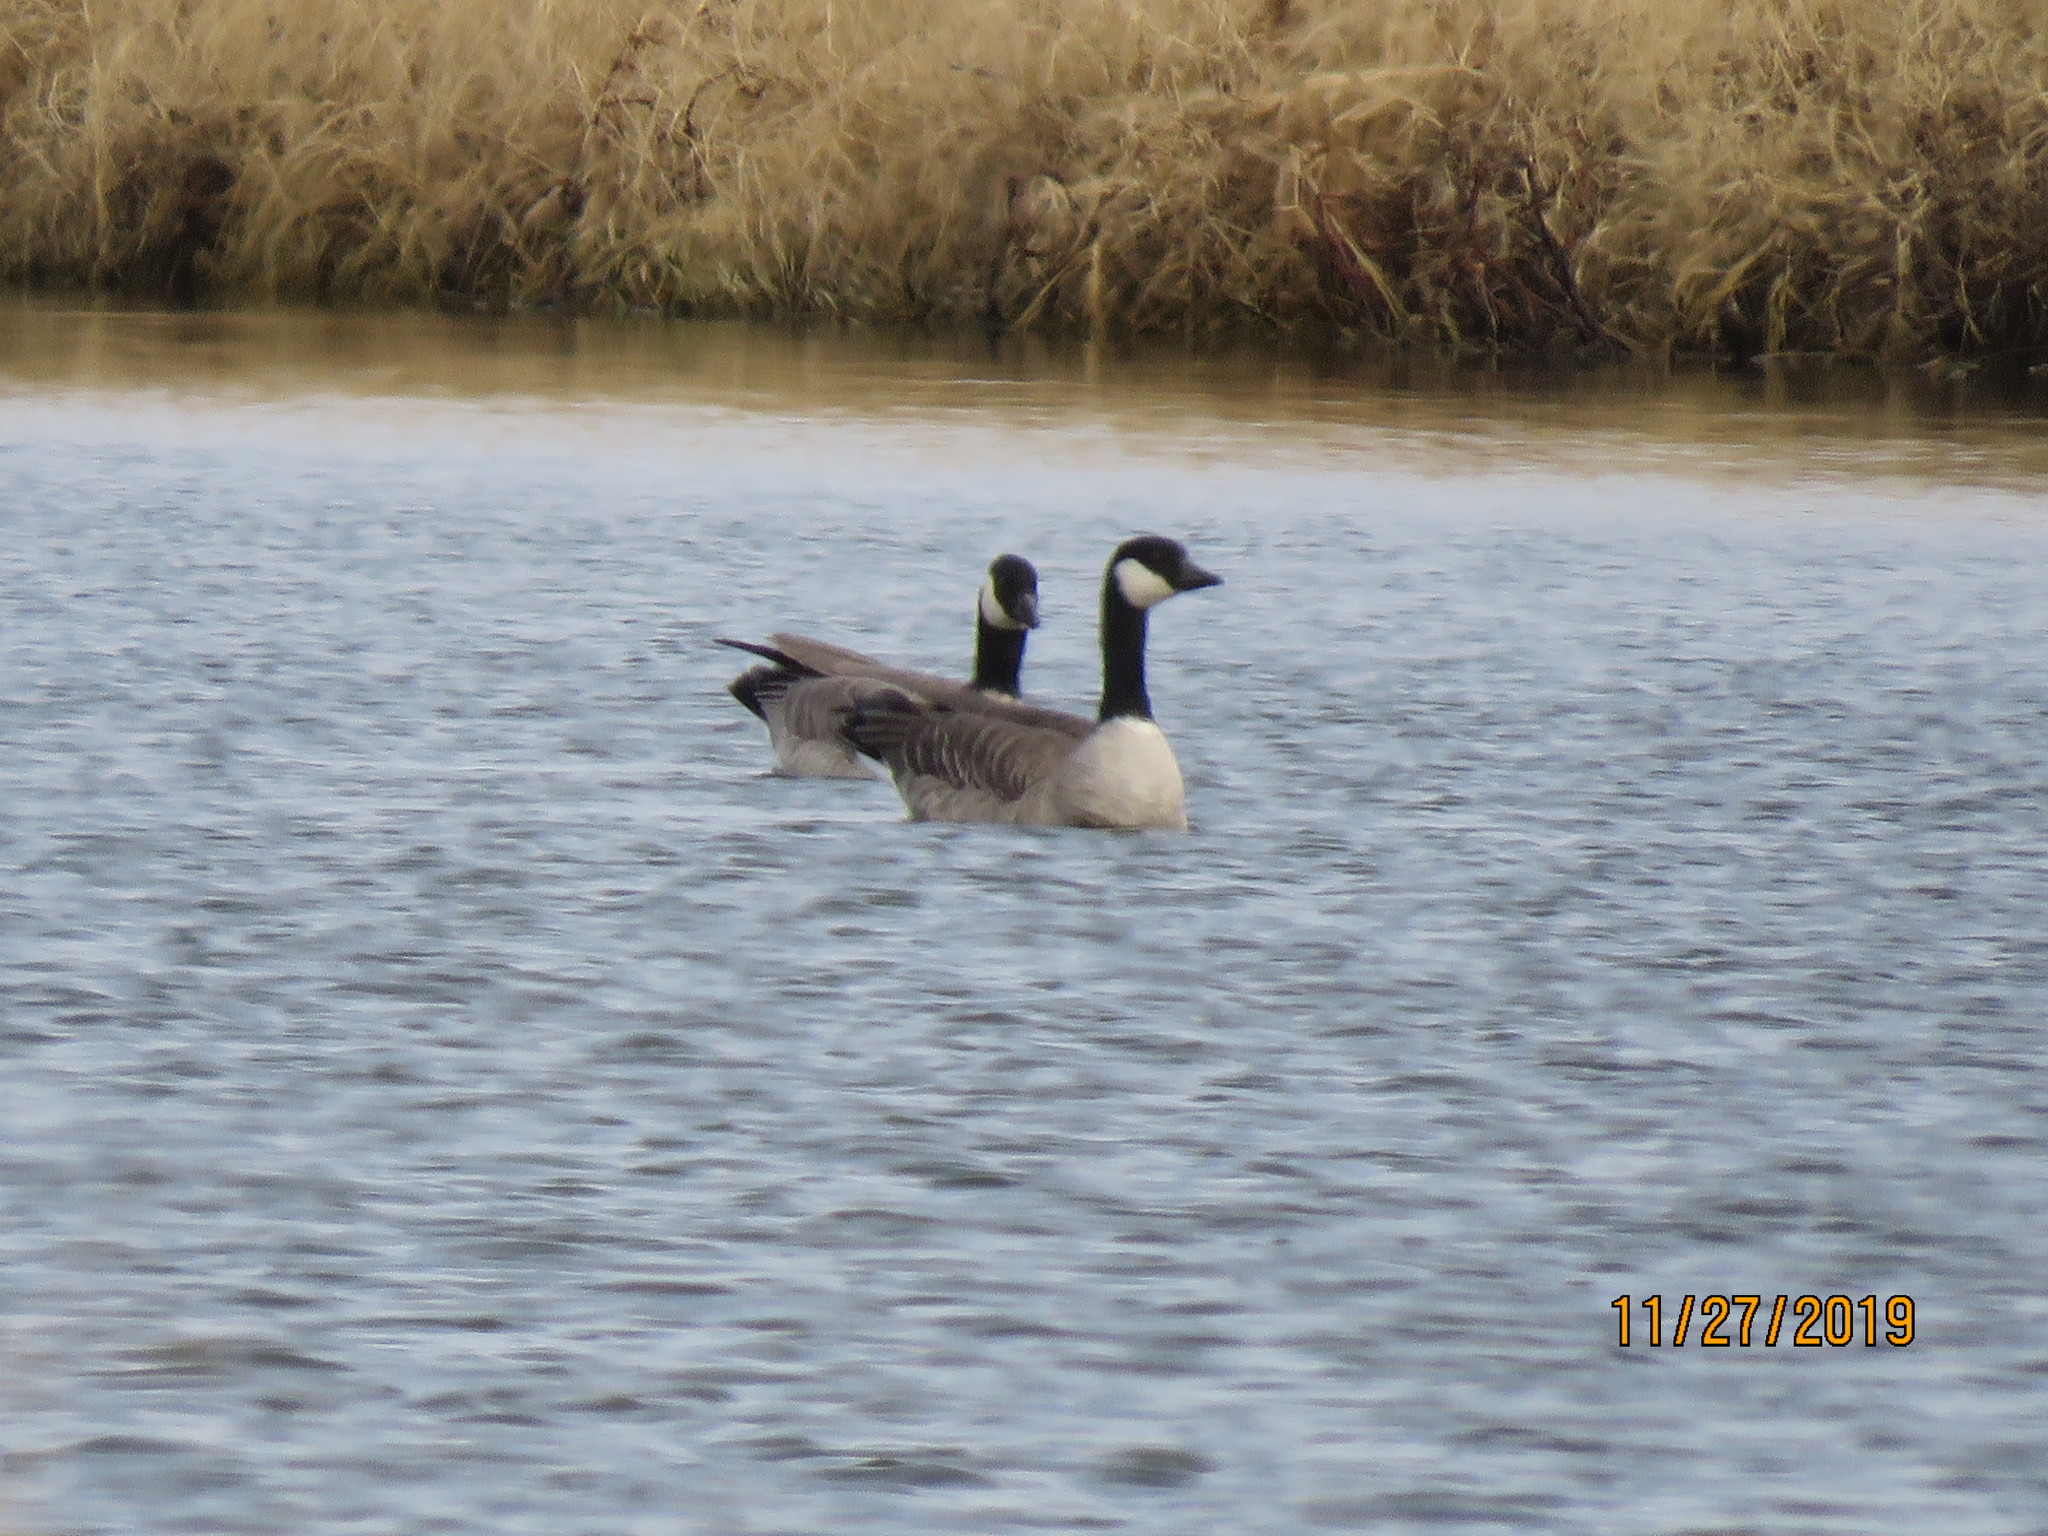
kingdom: Animalia
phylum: Chordata
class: Aves
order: Anseriformes
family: Anatidae
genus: Branta
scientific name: Branta canadensis
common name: Canada goose
